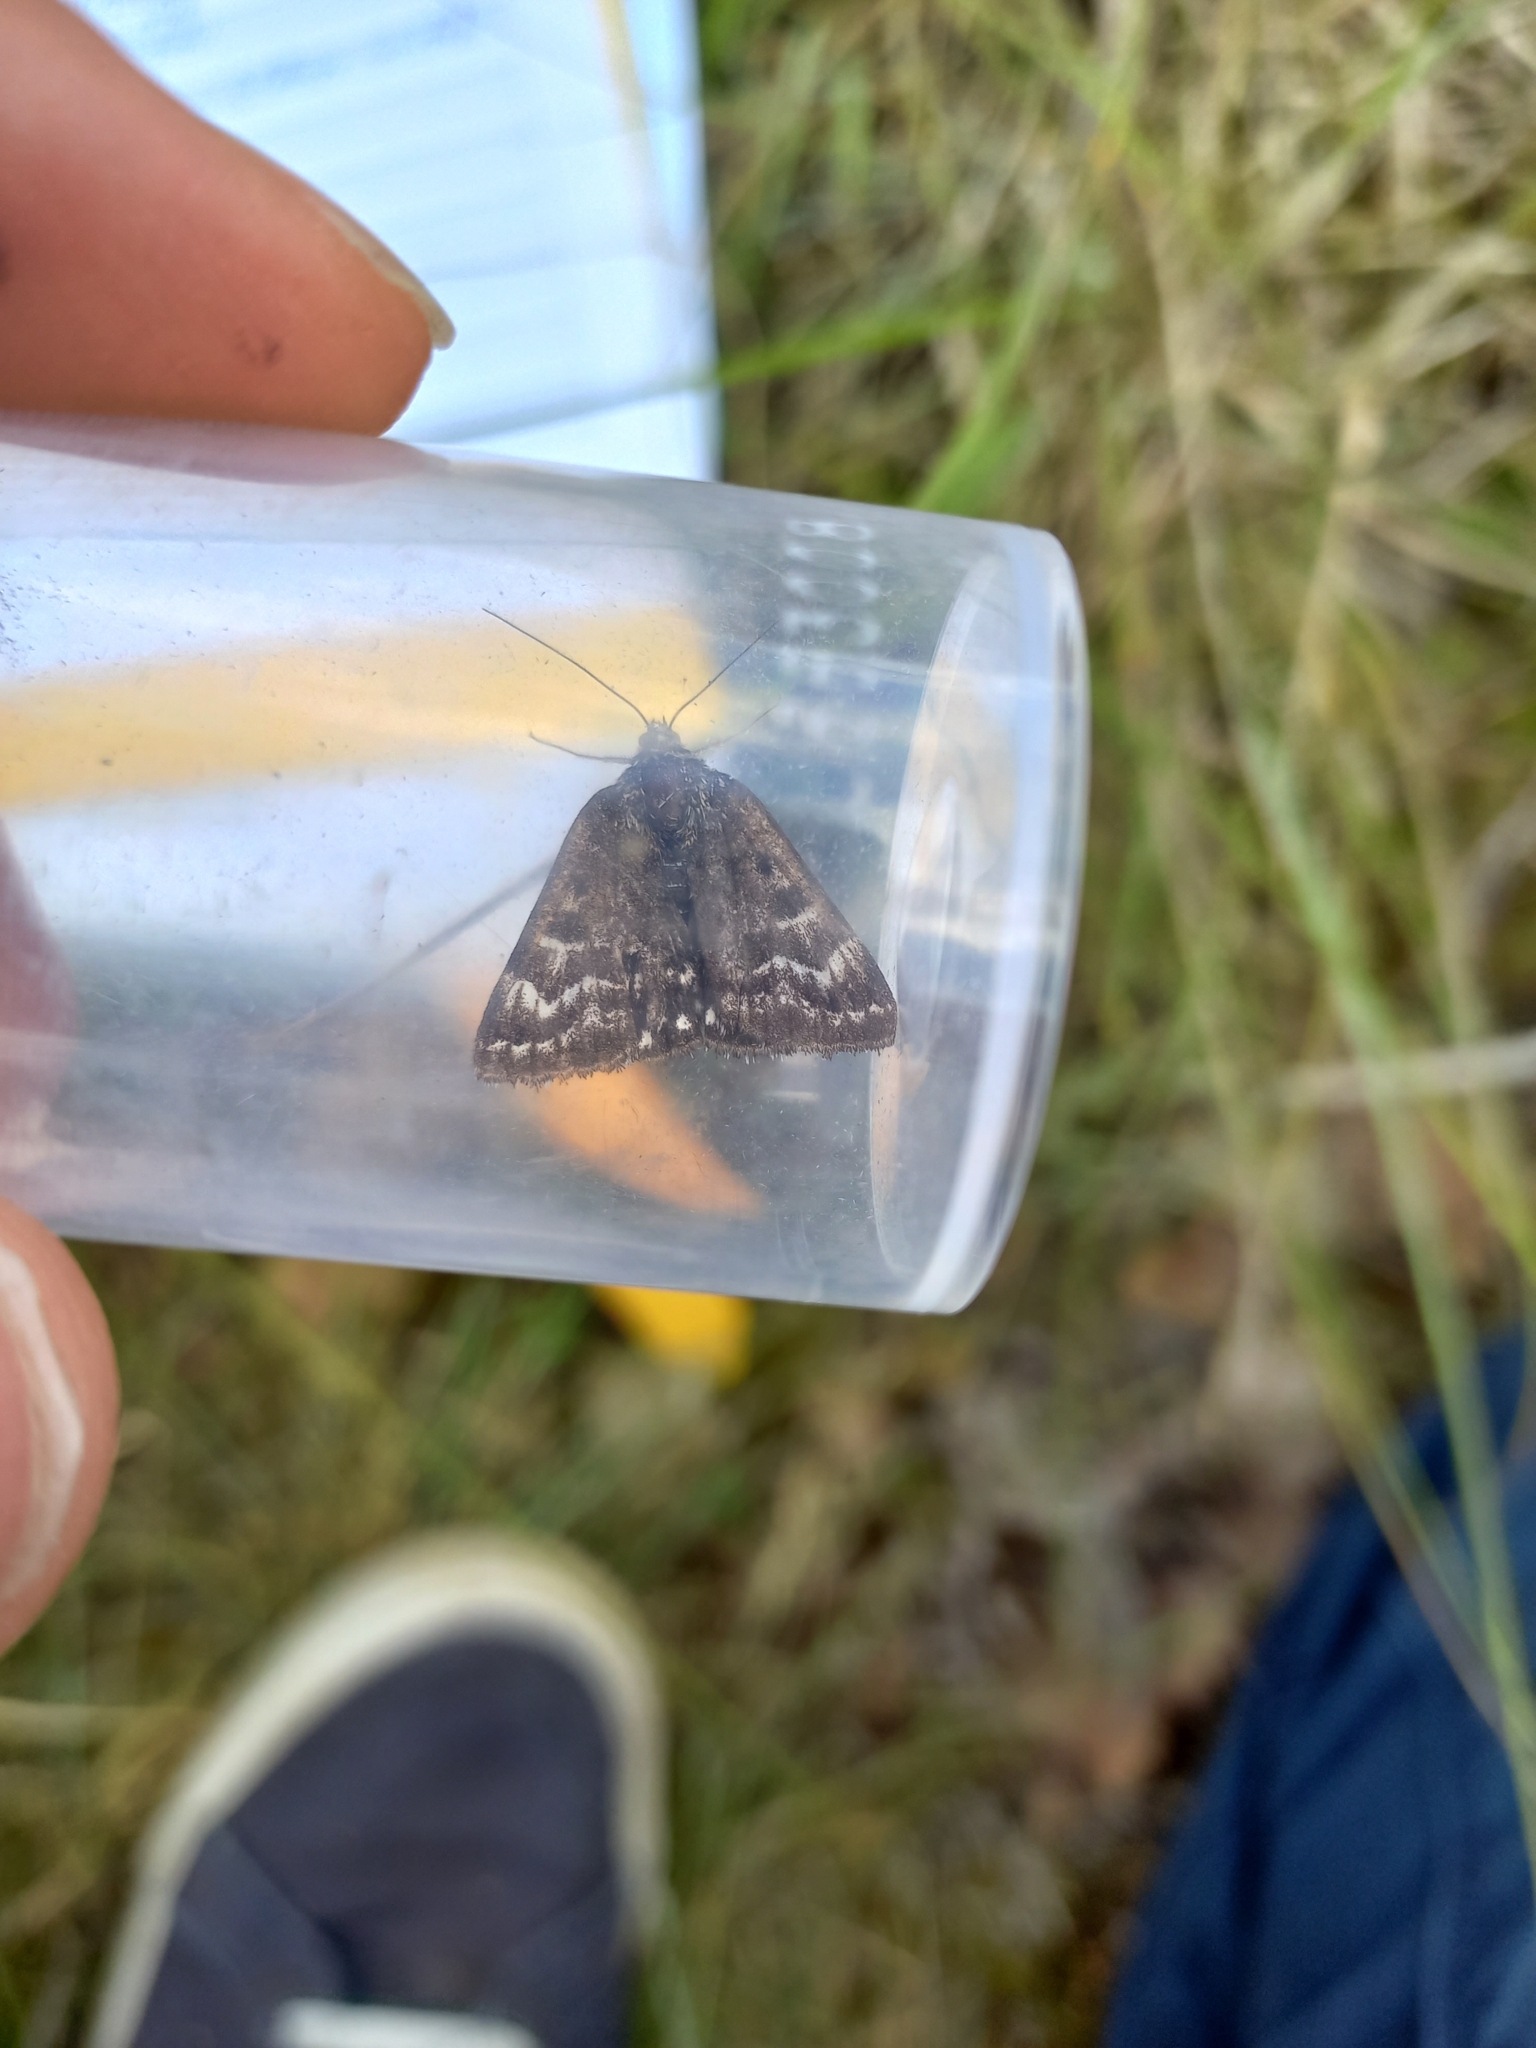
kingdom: Animalia
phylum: Arthropoda
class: Insecta
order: Lepidoptera
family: Erebidae
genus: Callistege
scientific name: Callistege mi
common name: Mother shipton
